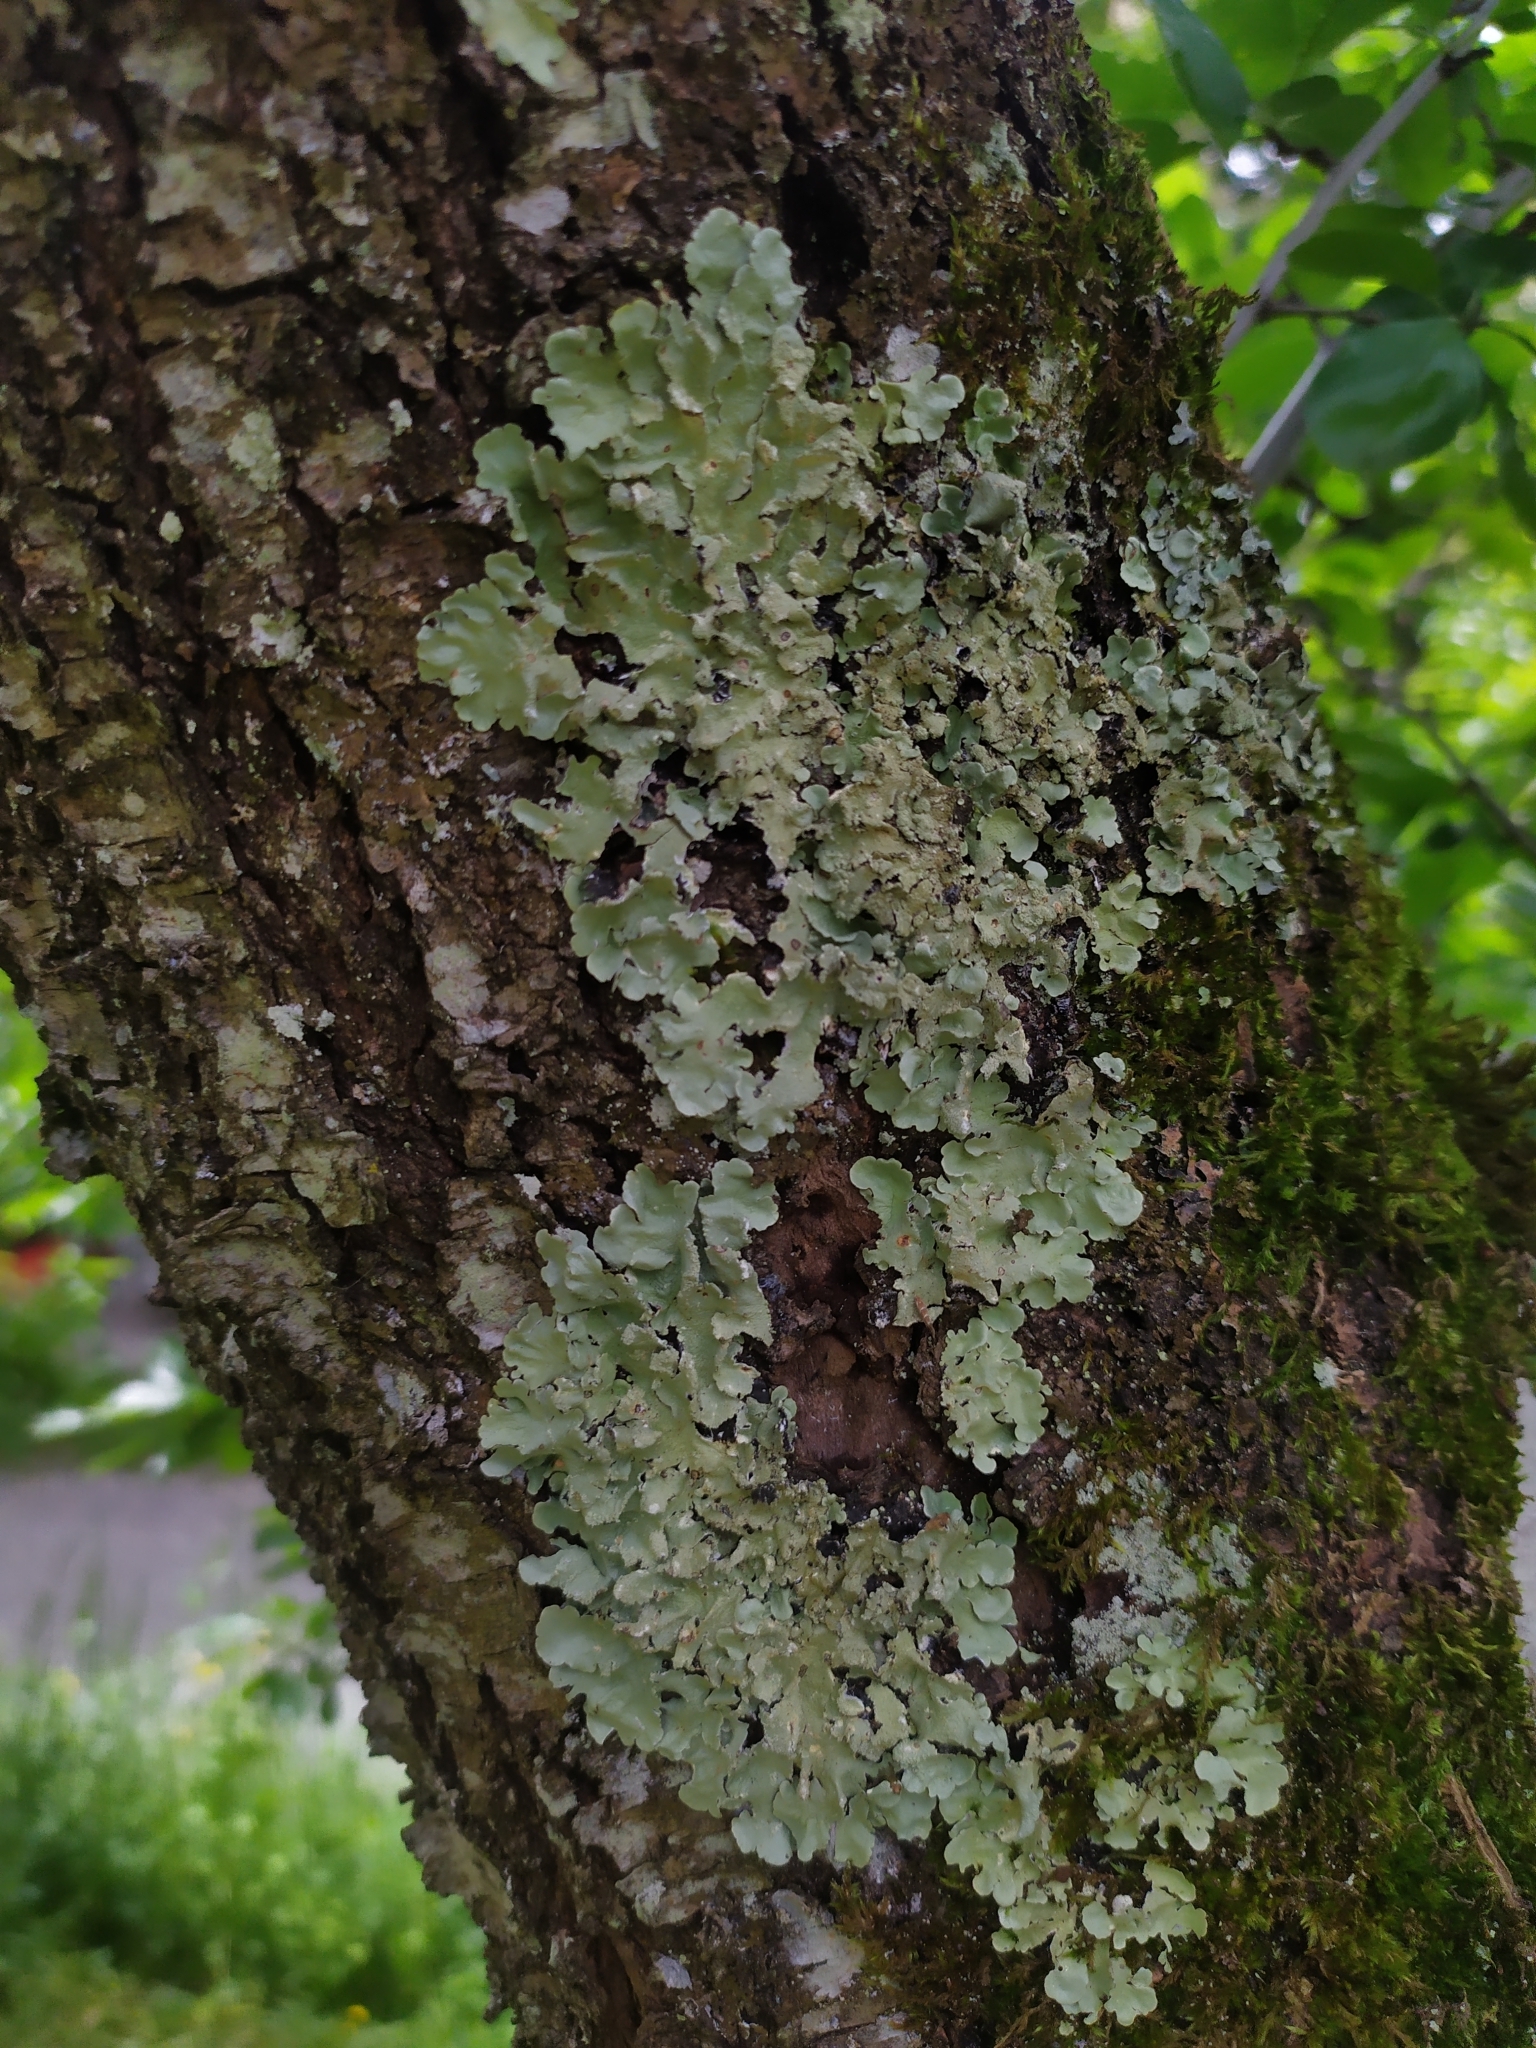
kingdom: Fungi
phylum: Ascomycota
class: Lecanoromycetes
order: Lecanorales
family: Parmeliaceae
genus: Flavoparmelia
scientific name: Flavoparmelia caperata
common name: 40-mile per hour lichen
